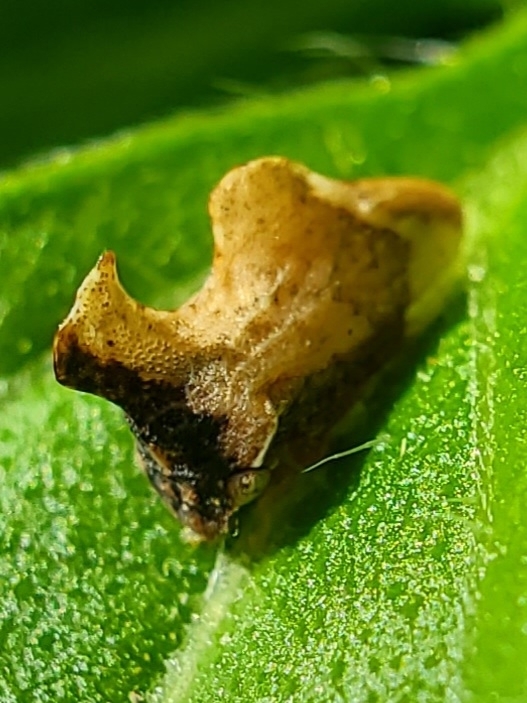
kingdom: Animalia
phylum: Arthropoda
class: Insecta
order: Hemiptera
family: Membracidae
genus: Entylia
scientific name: Entylia carinata
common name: Keeled treehopper
